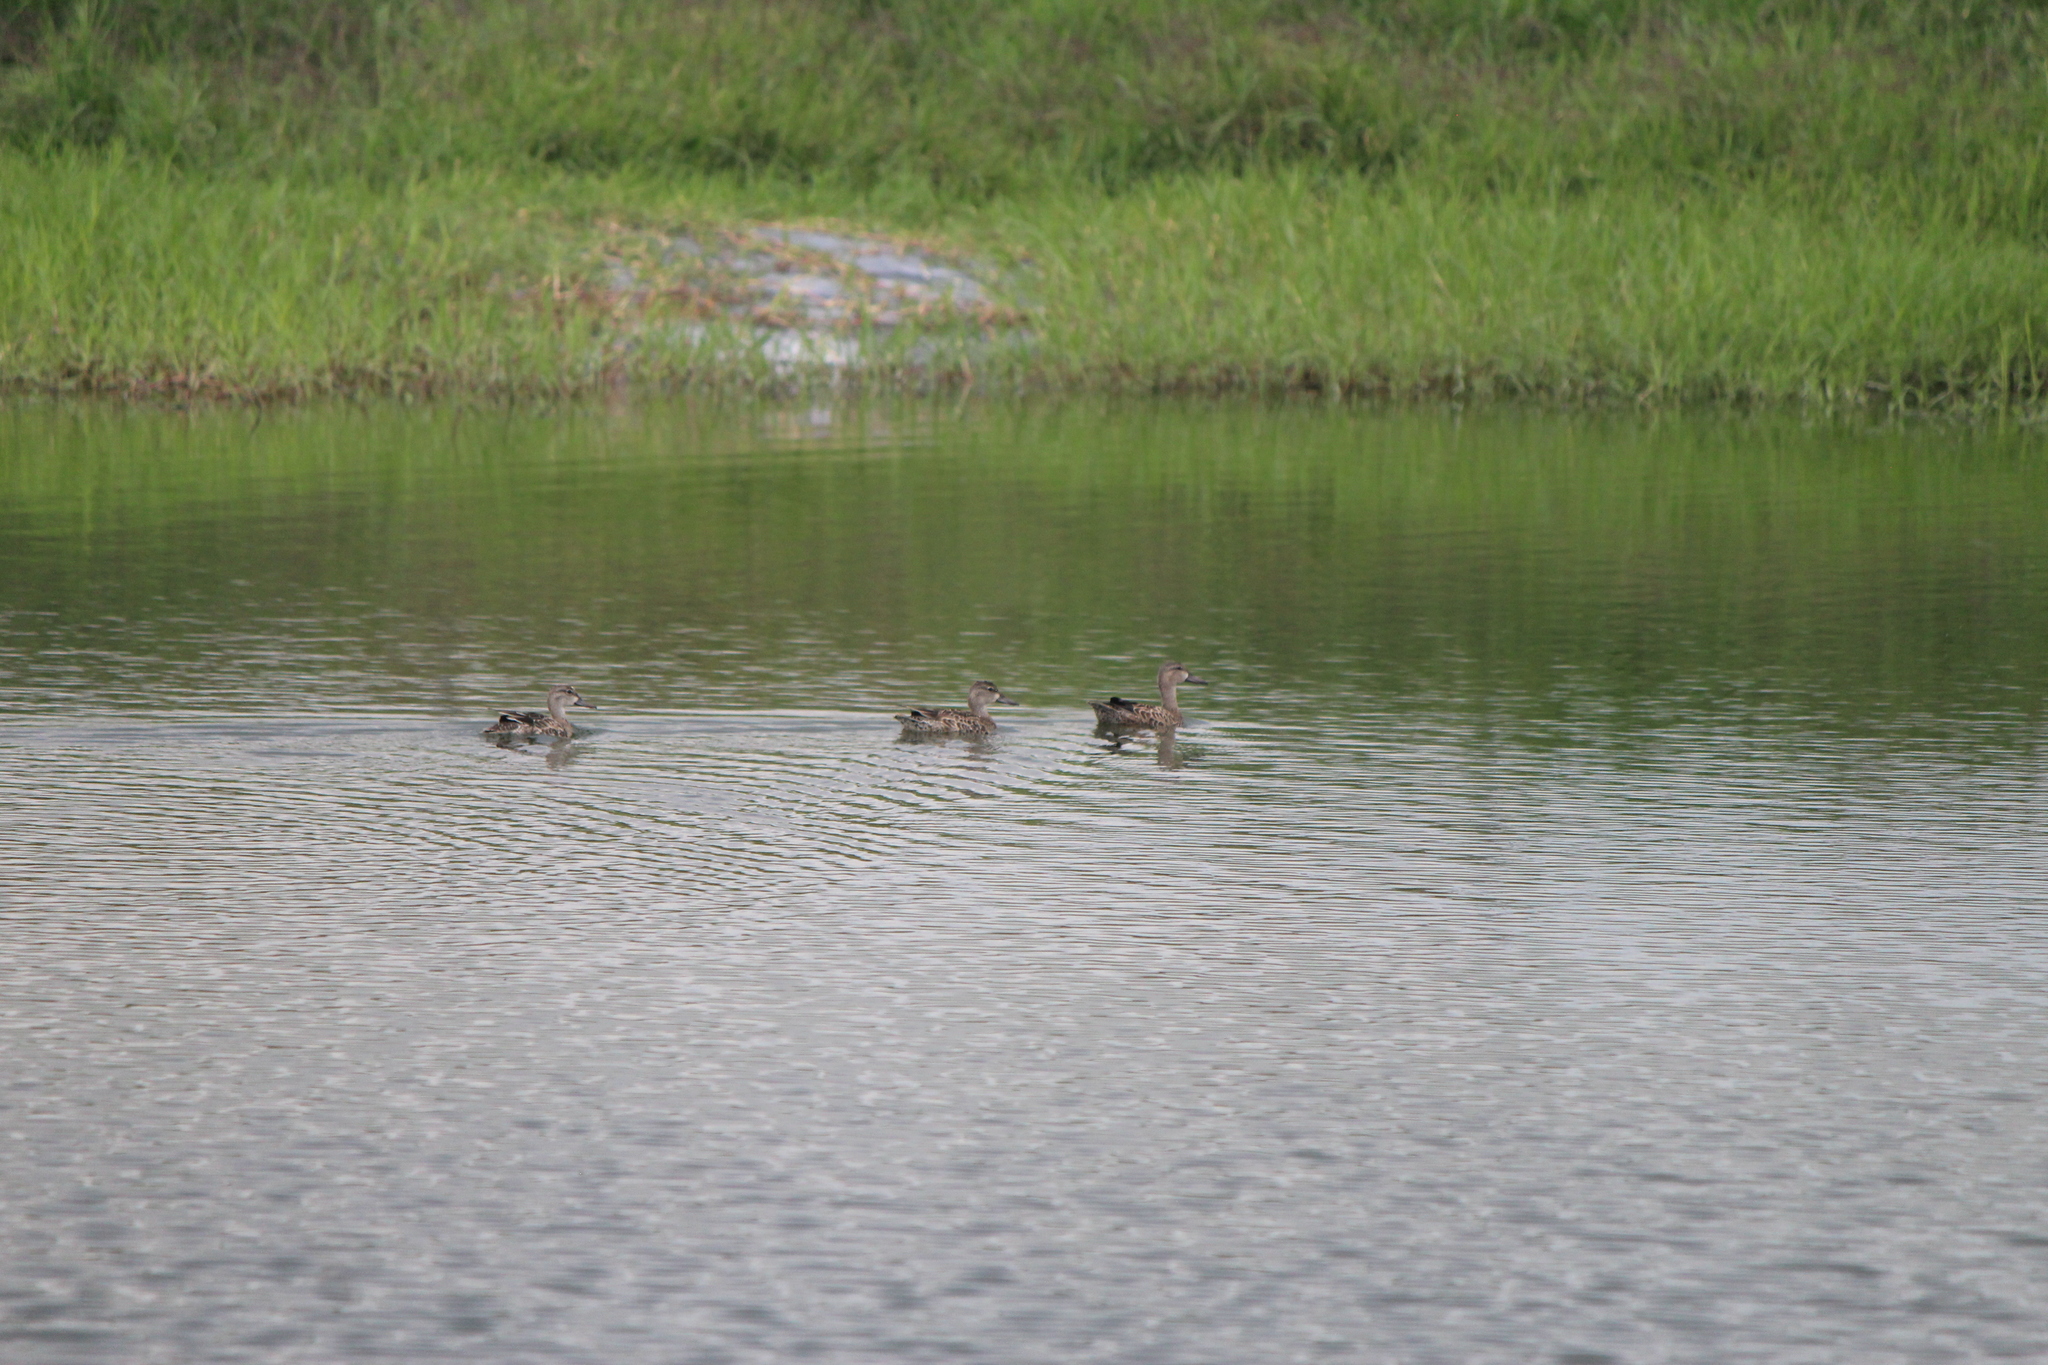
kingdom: Animalia
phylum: Chordata
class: Aves
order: Anseriformes
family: Anatidae
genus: Spatula
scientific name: Spatula discors
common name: Blue-winged teal
